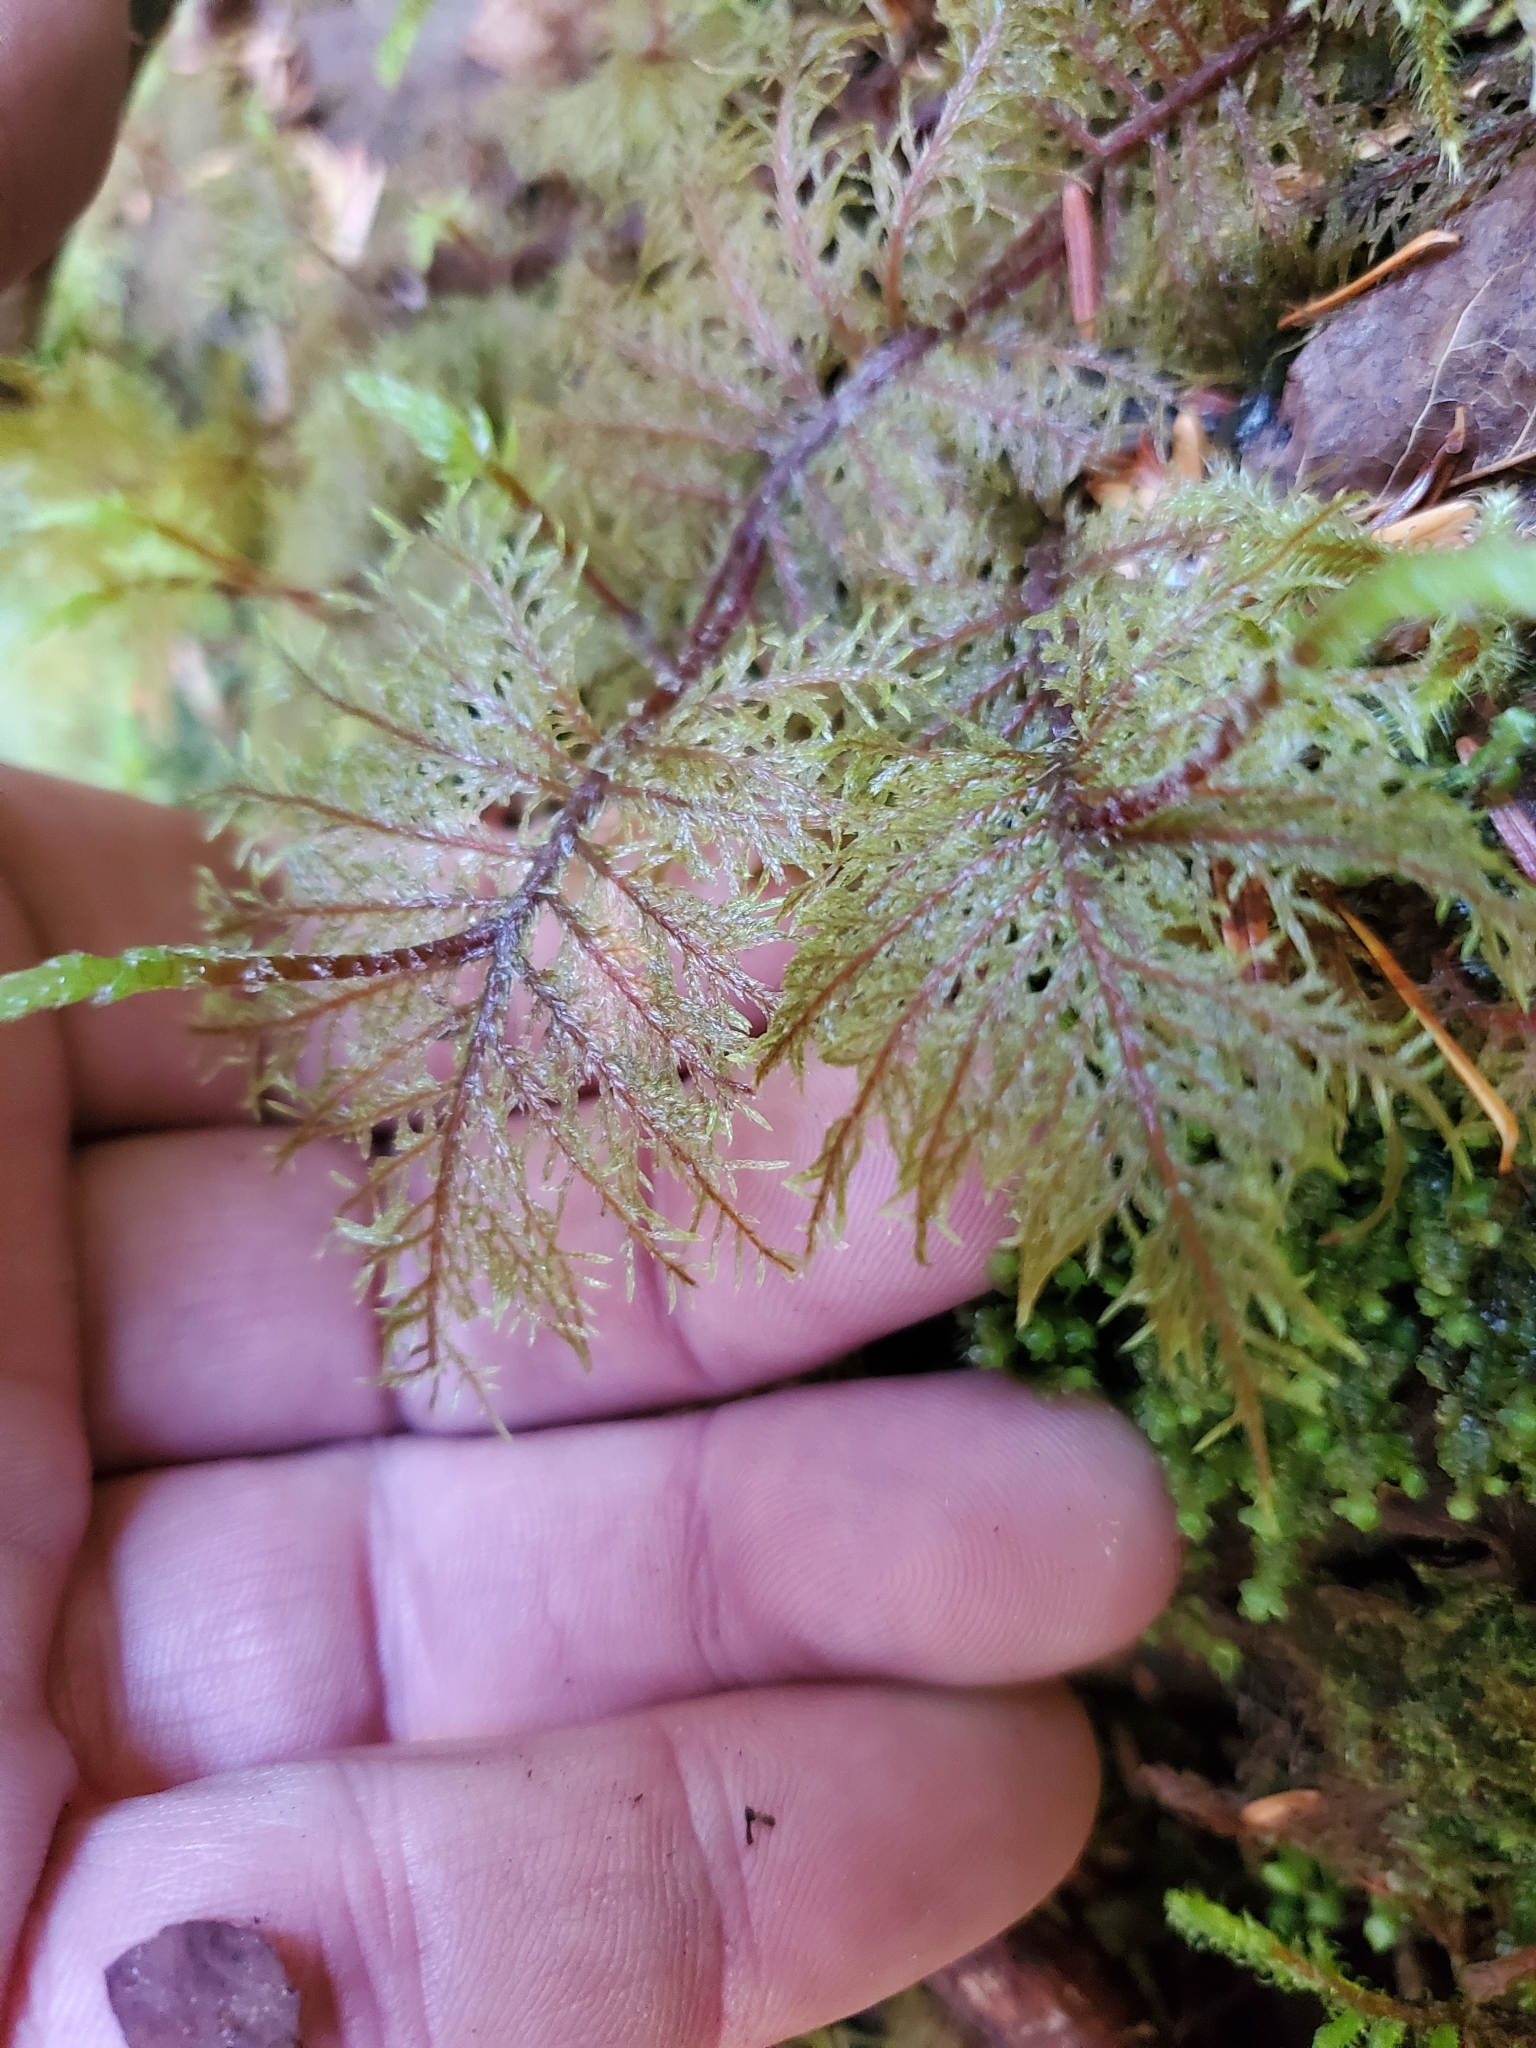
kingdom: Plantae
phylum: Bryophyta
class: Bryopsida
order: Hypnales
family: Hylocomiaceae
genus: Hylocomium
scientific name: Hylocomium splendens
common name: Stairstep moss
